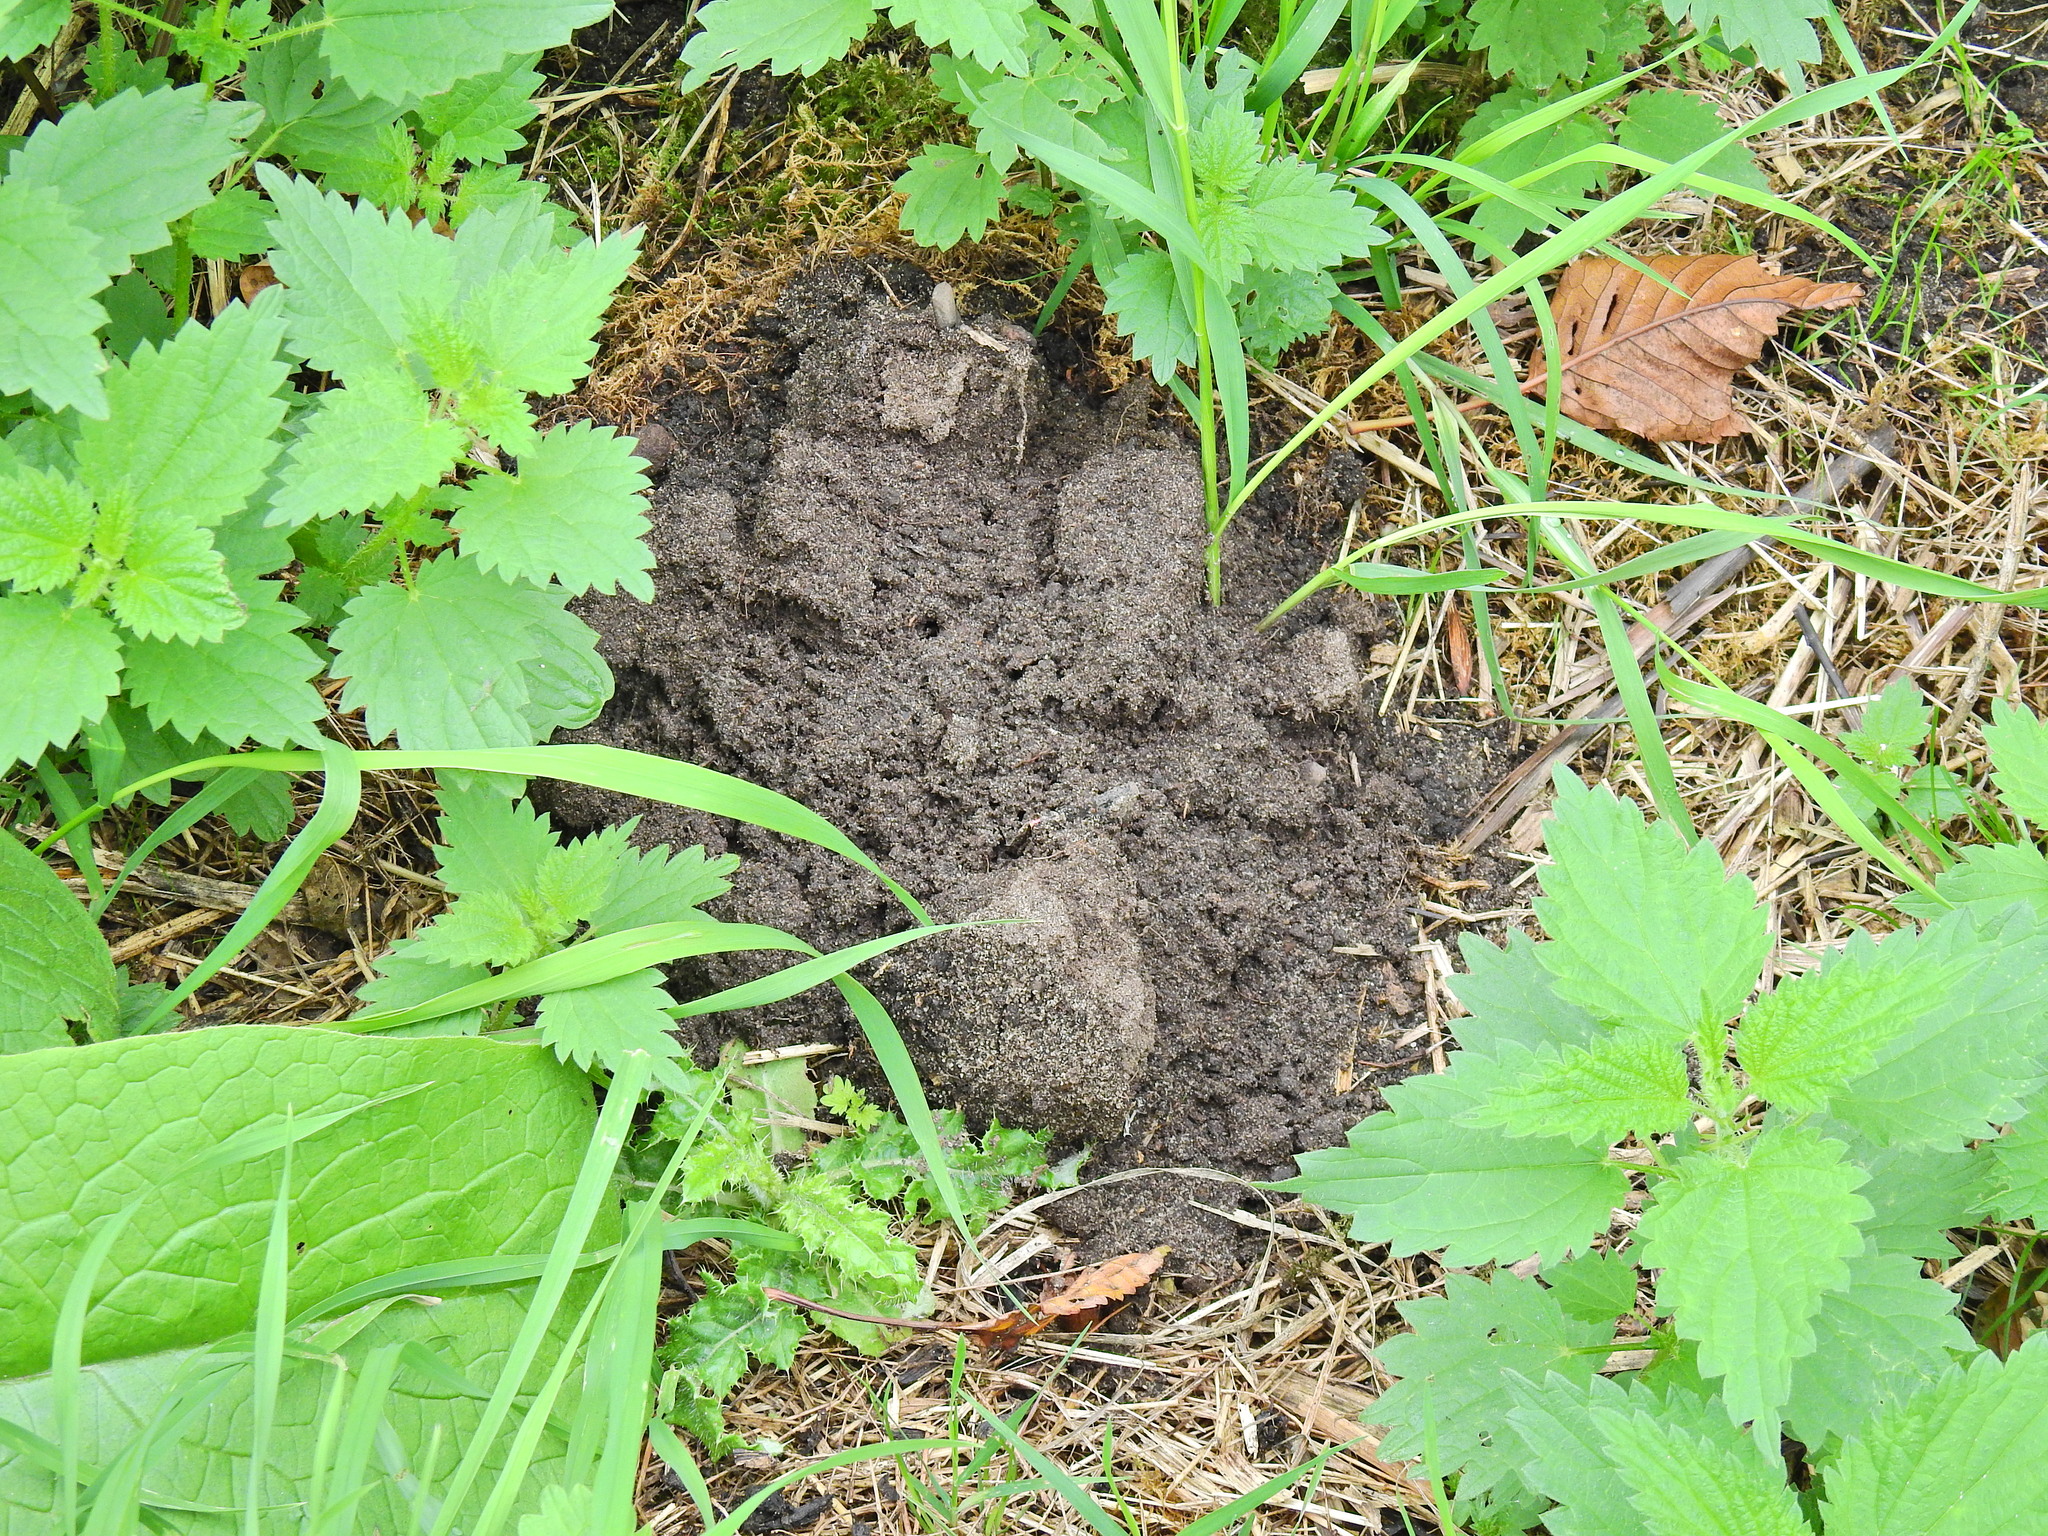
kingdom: Animalia
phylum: Chordata
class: Mammalia
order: Soricomorpha
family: Talpidae
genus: Talpa
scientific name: Talpa europaea
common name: European mole
